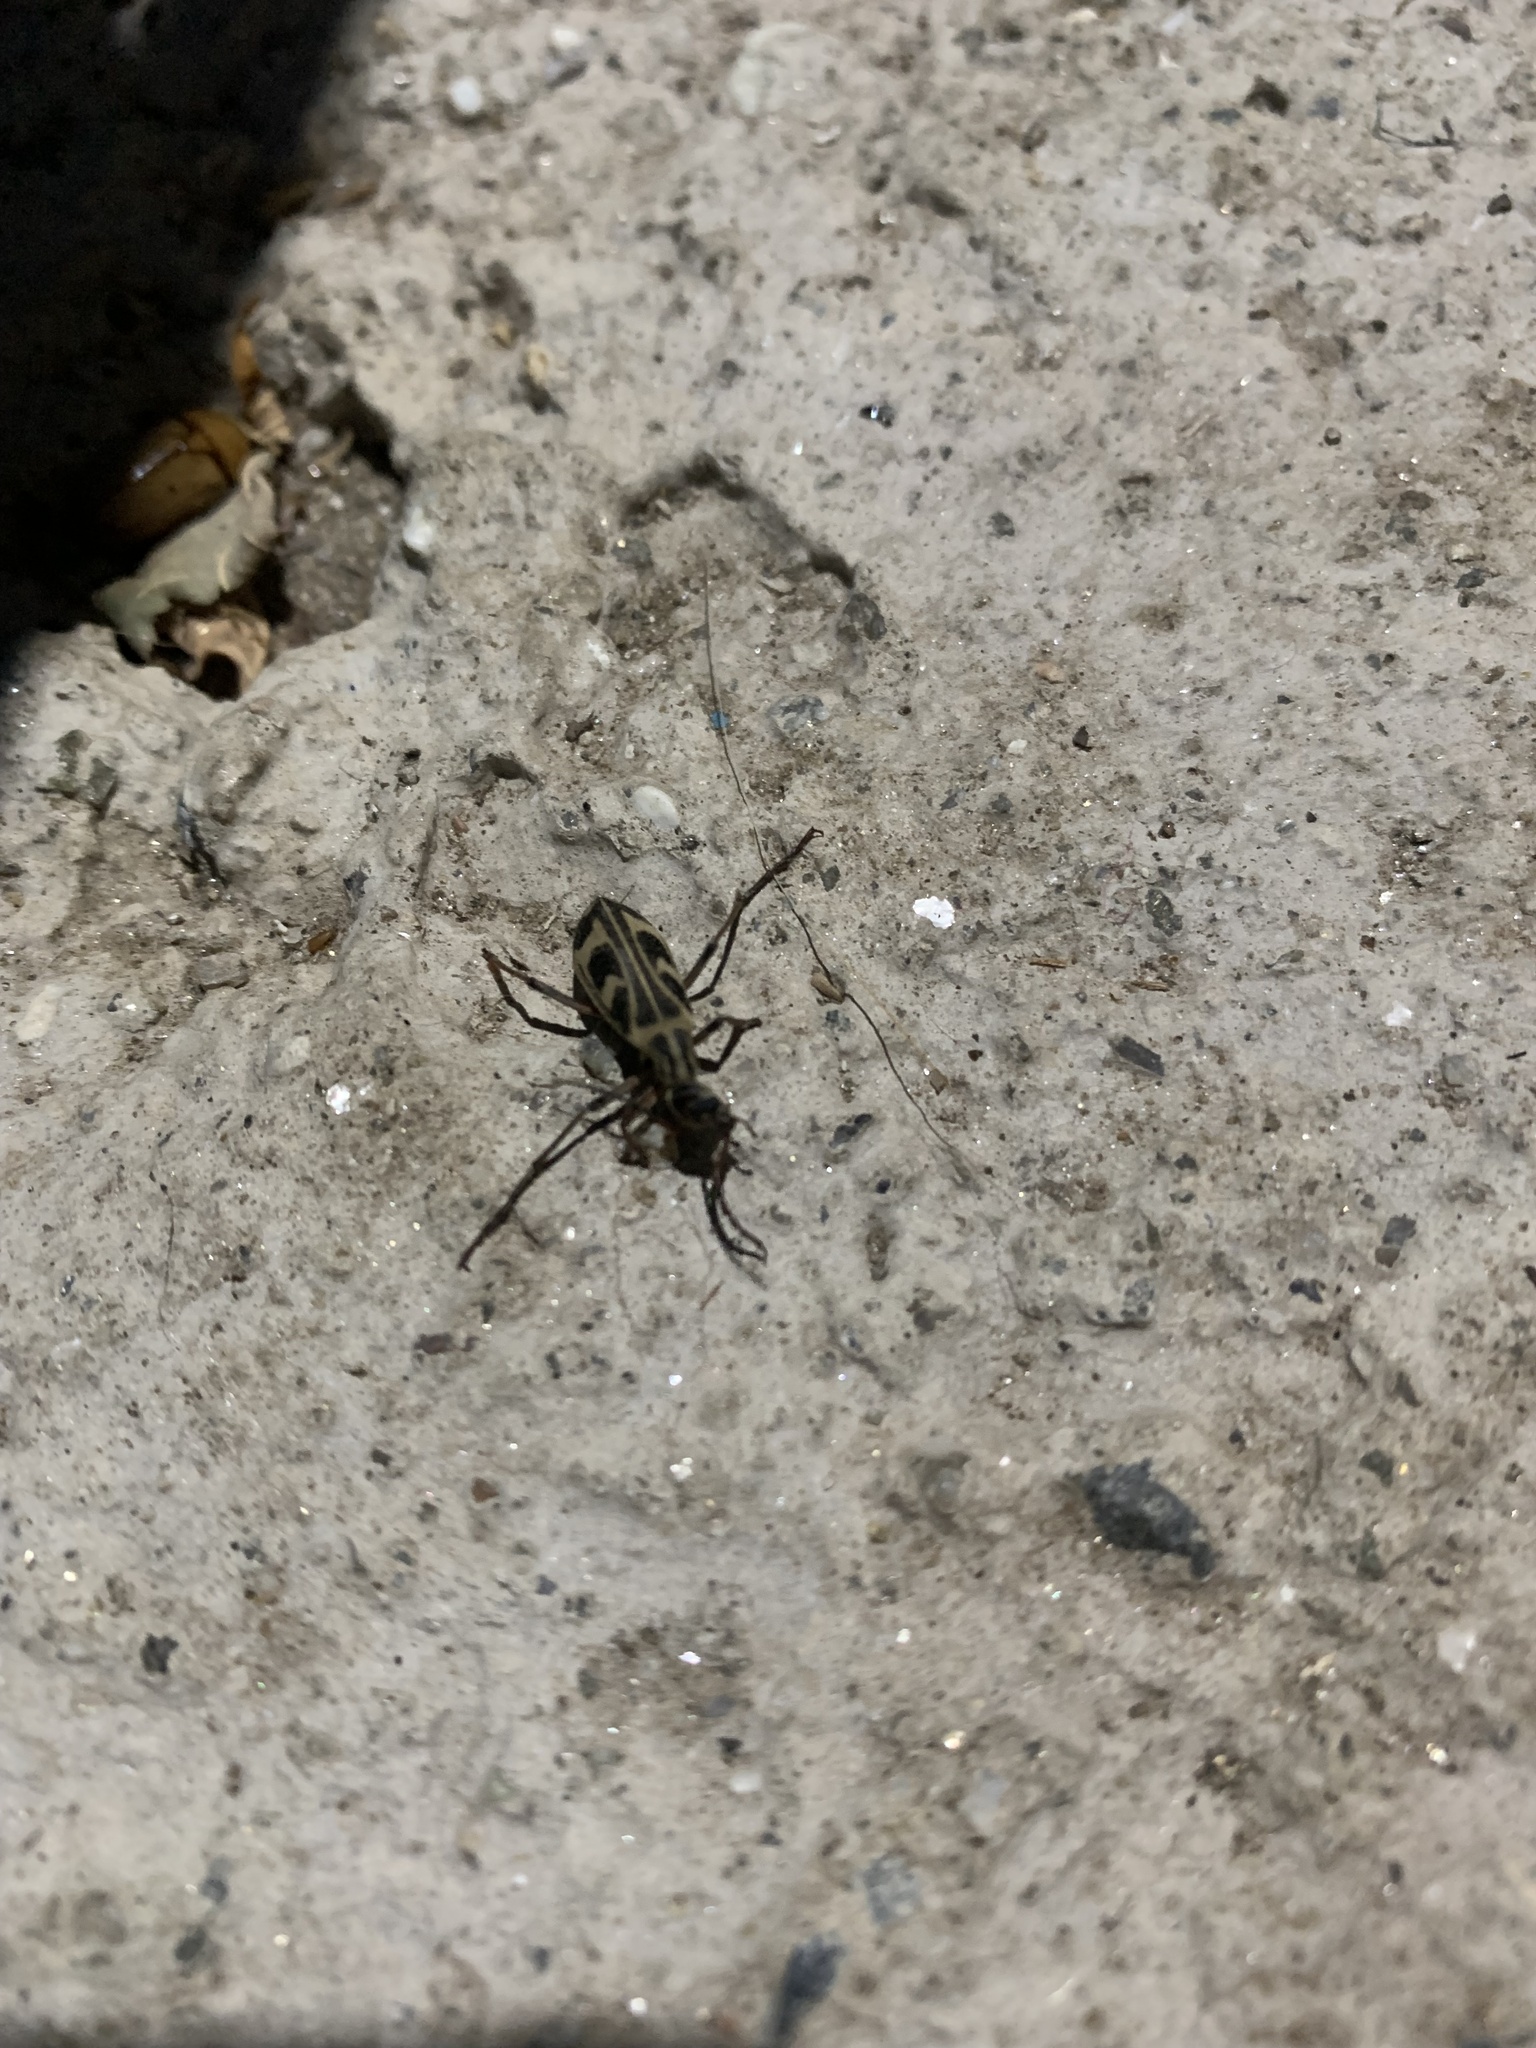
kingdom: Animalia
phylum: Arthropoda
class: Insecta
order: Coleoptera
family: Meloidae
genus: Epicauta
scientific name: Epicauta leopardina
